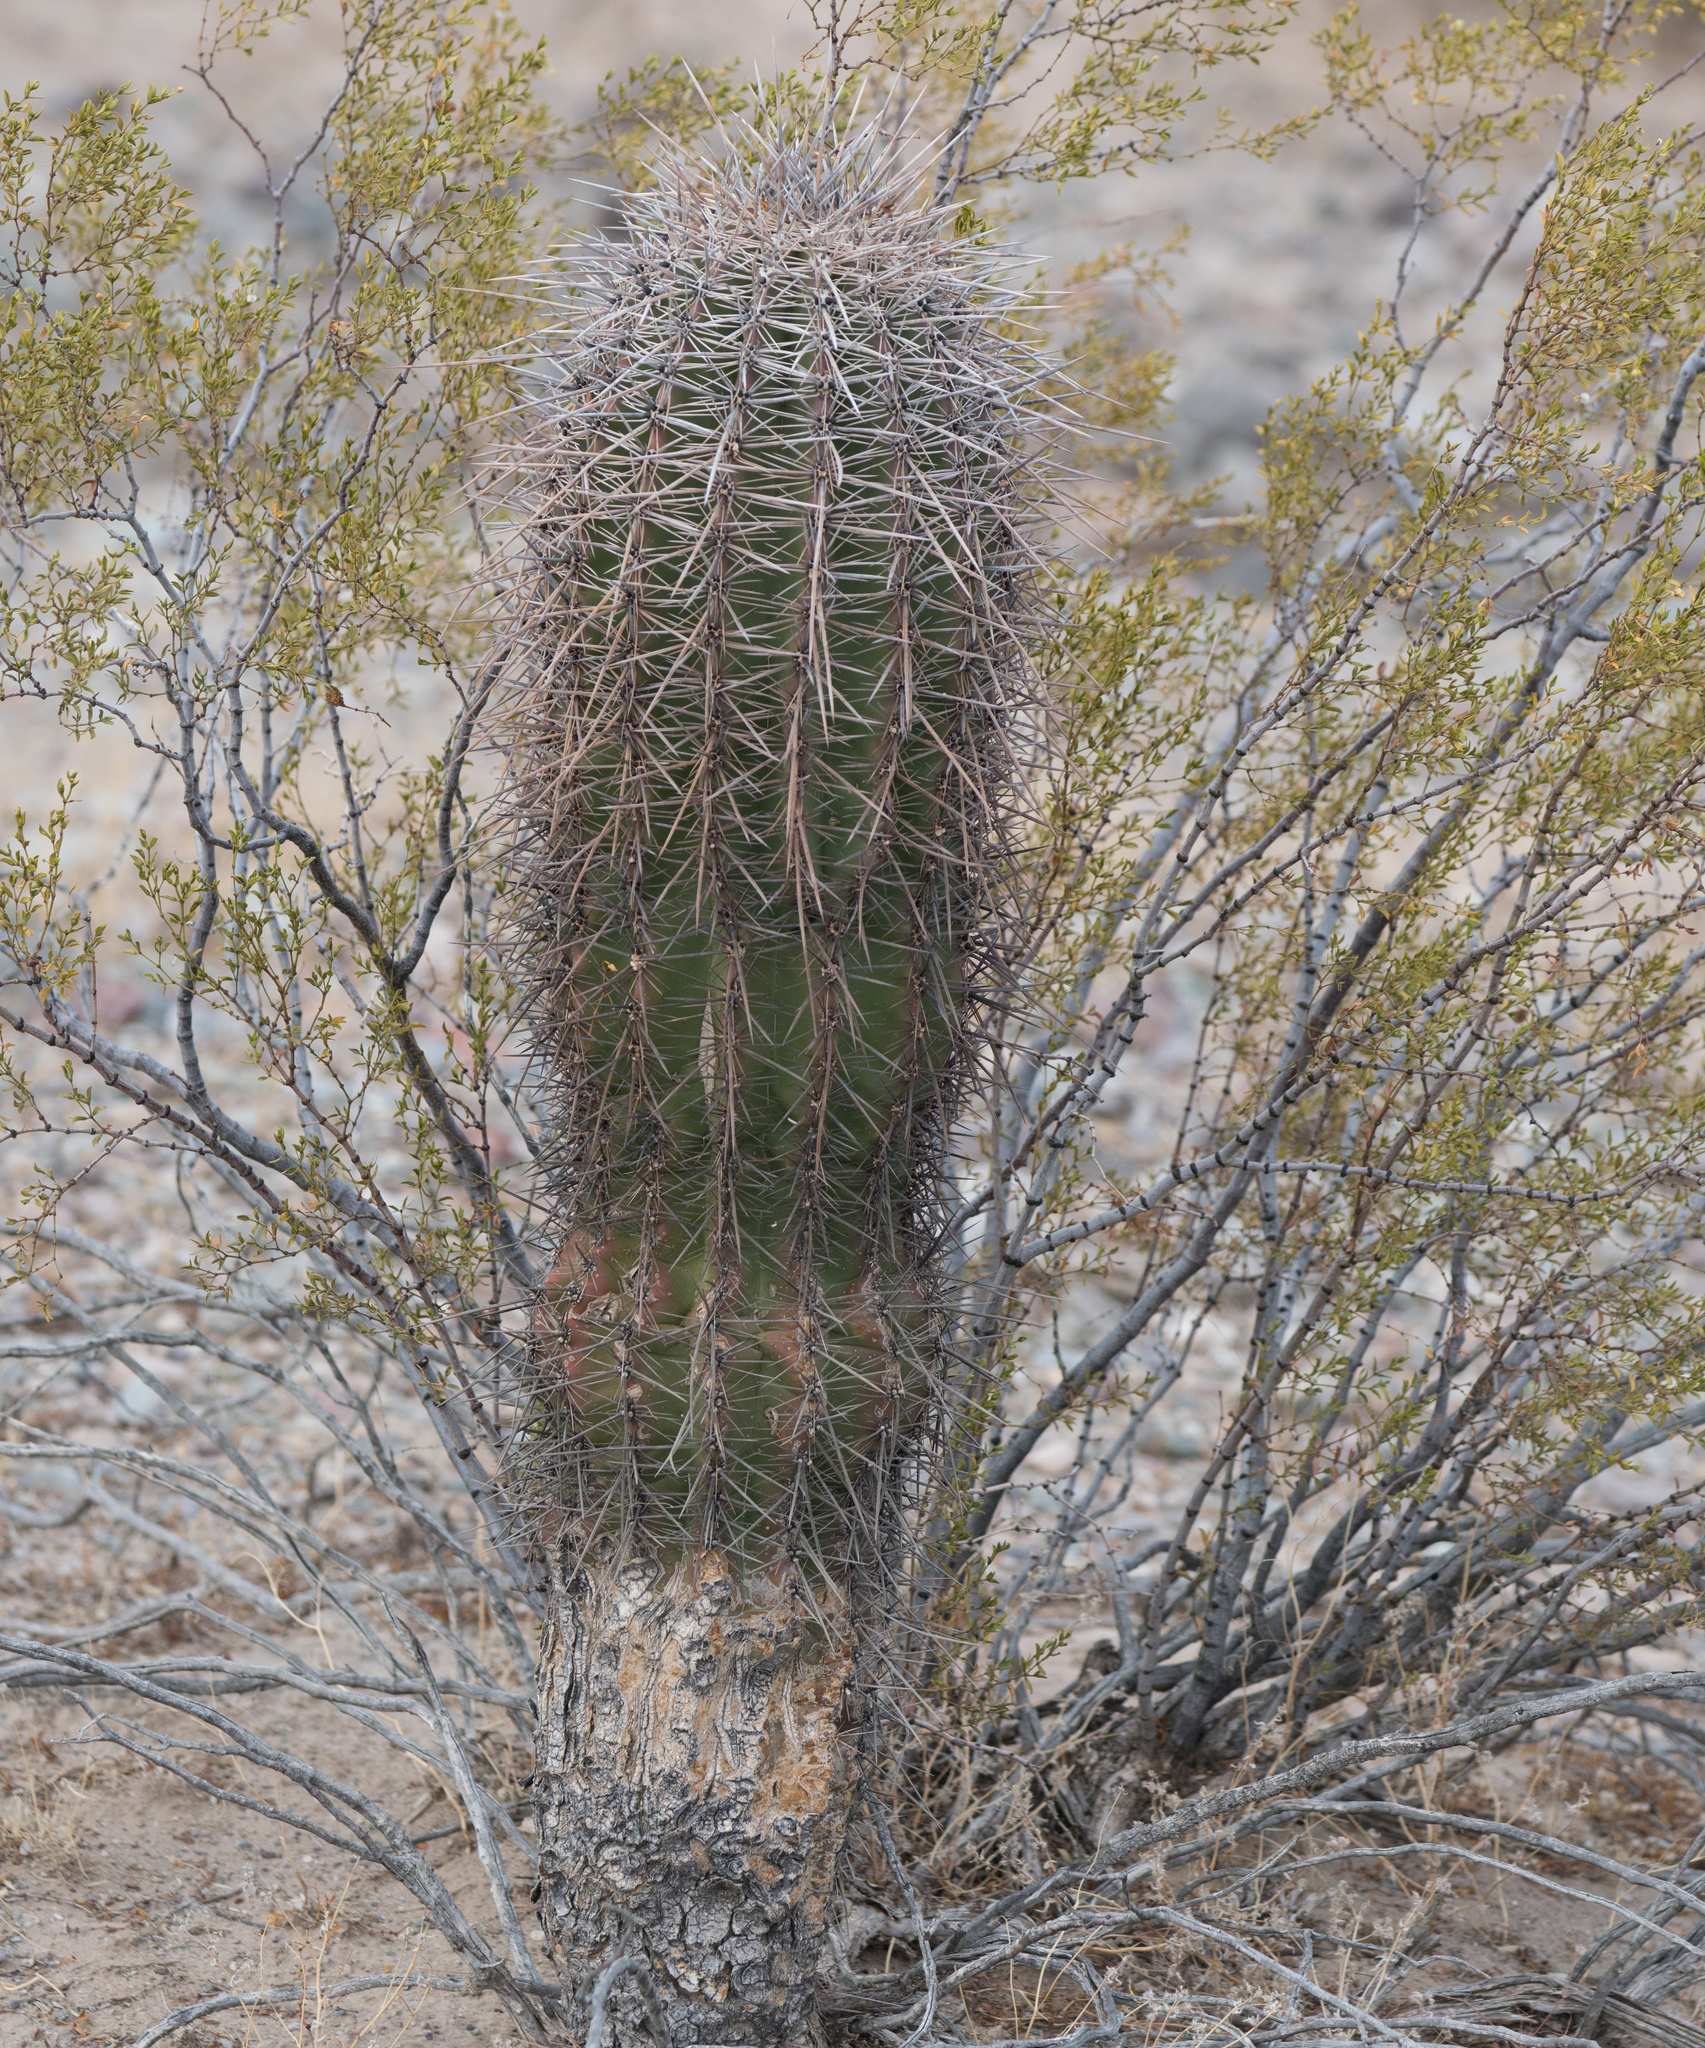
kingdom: Plantae
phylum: Tracheophyta
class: Magnoliopsida
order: Caryophyllales
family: Cactaceae
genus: Carnegiea
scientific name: Carnegiea gigantea
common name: Saguaro
